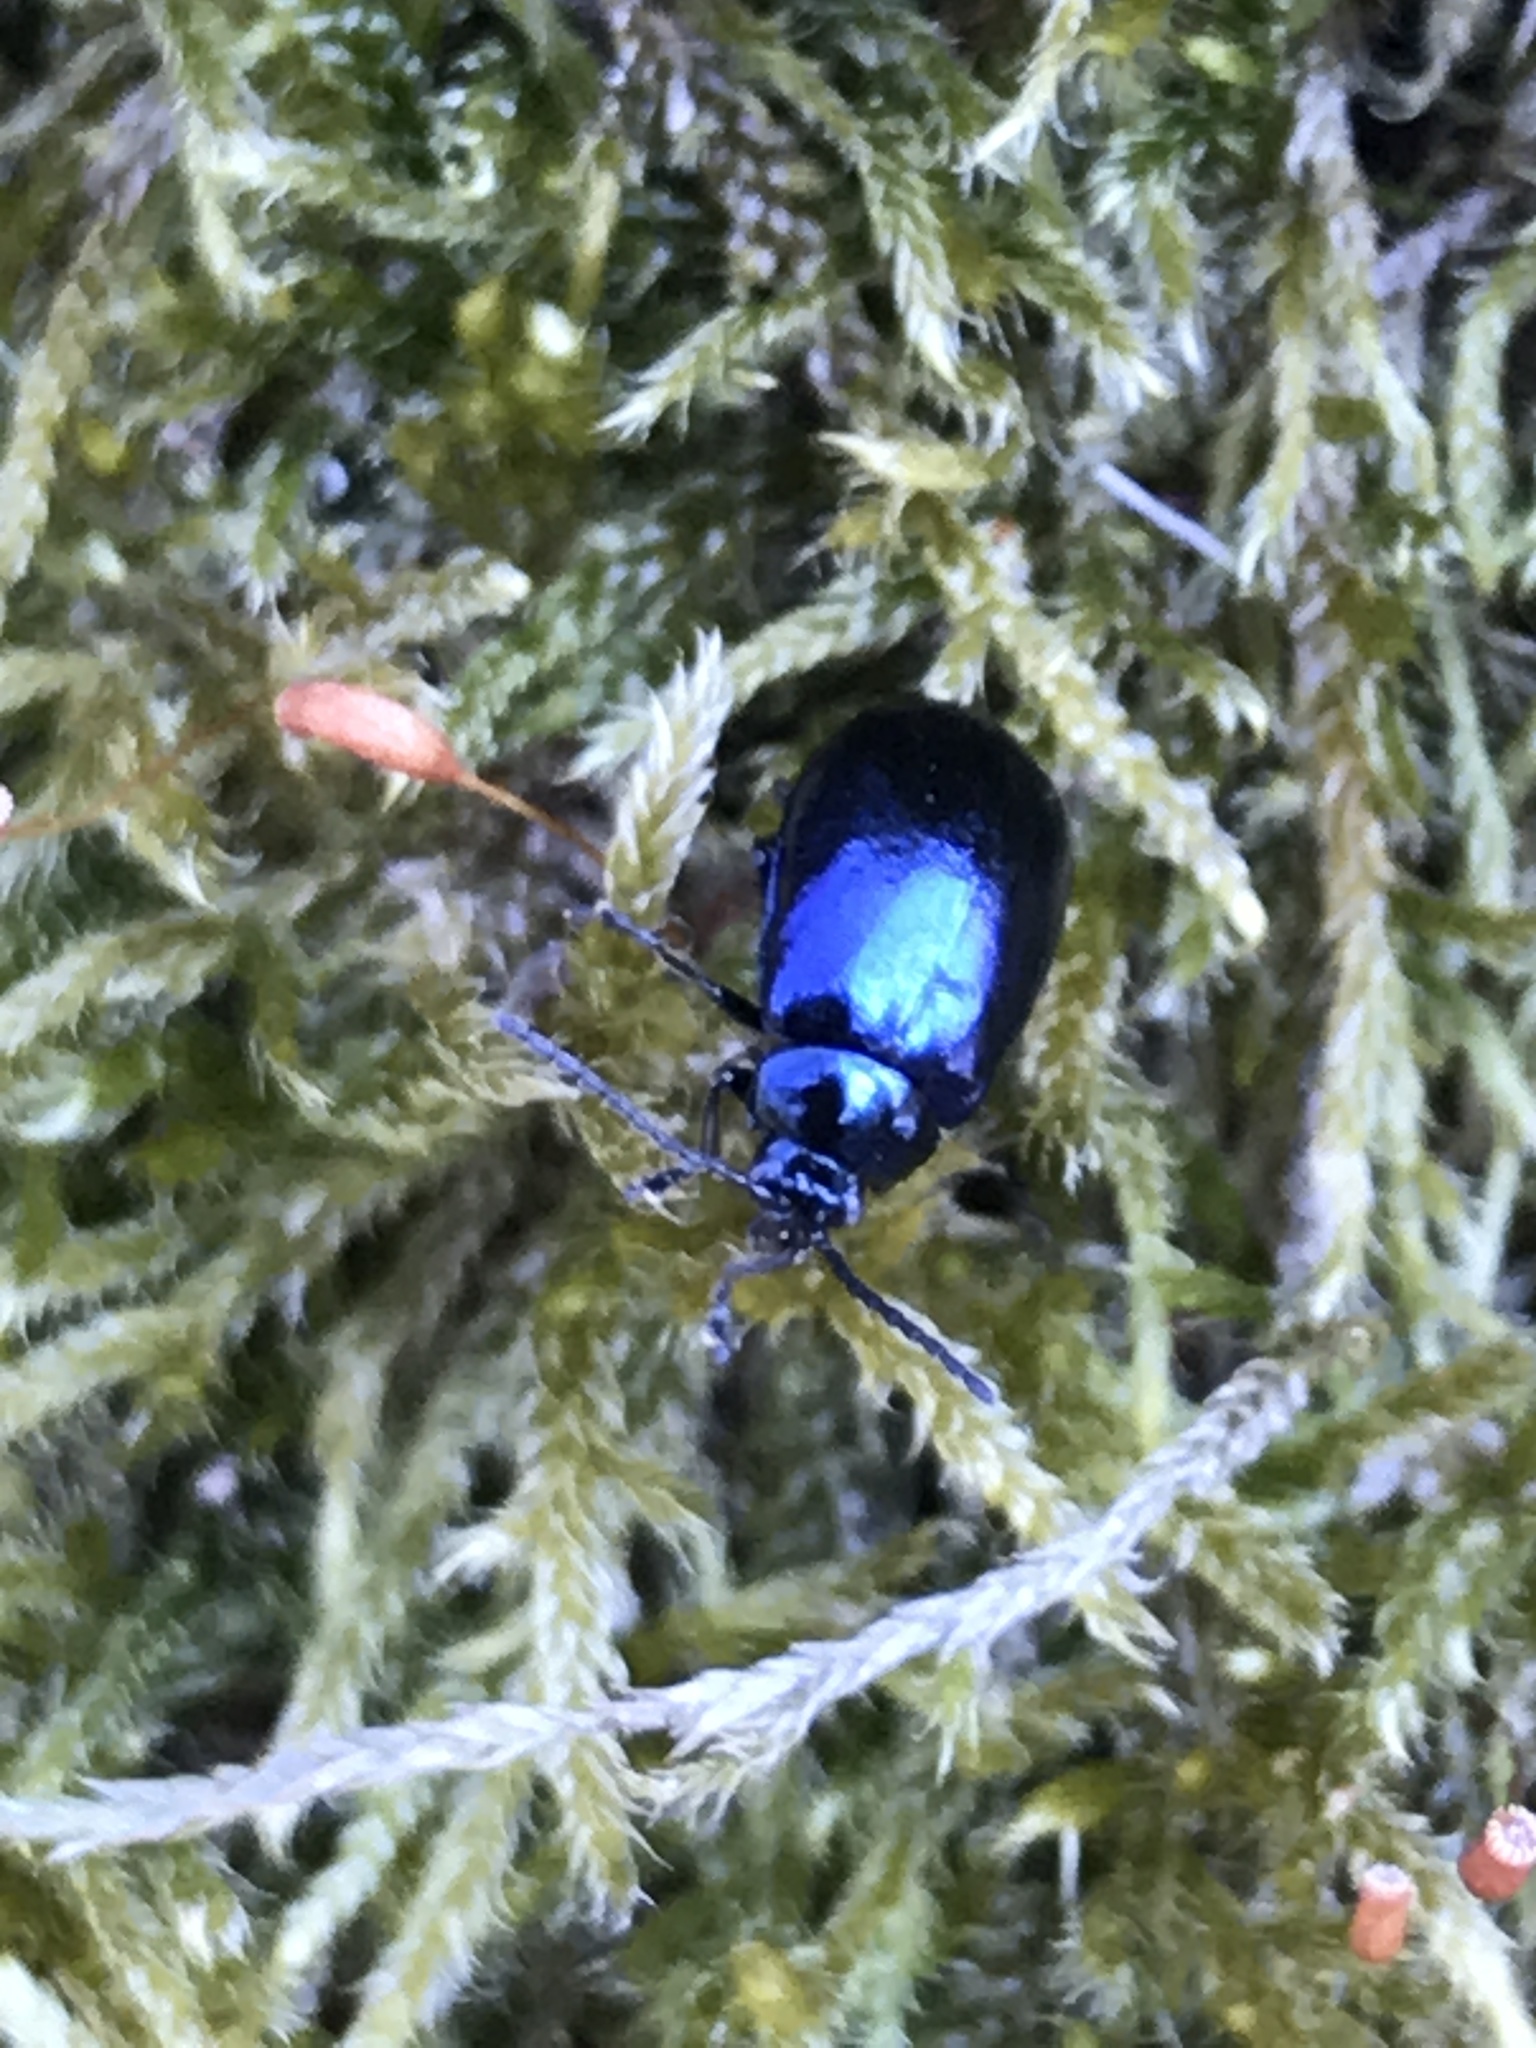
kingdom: Animalia
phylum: Arthropoda
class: Insecta
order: Coleoptera
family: Chrysomelidae
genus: Agelastica
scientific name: Agelastica alni
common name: Alder leaf beetle
